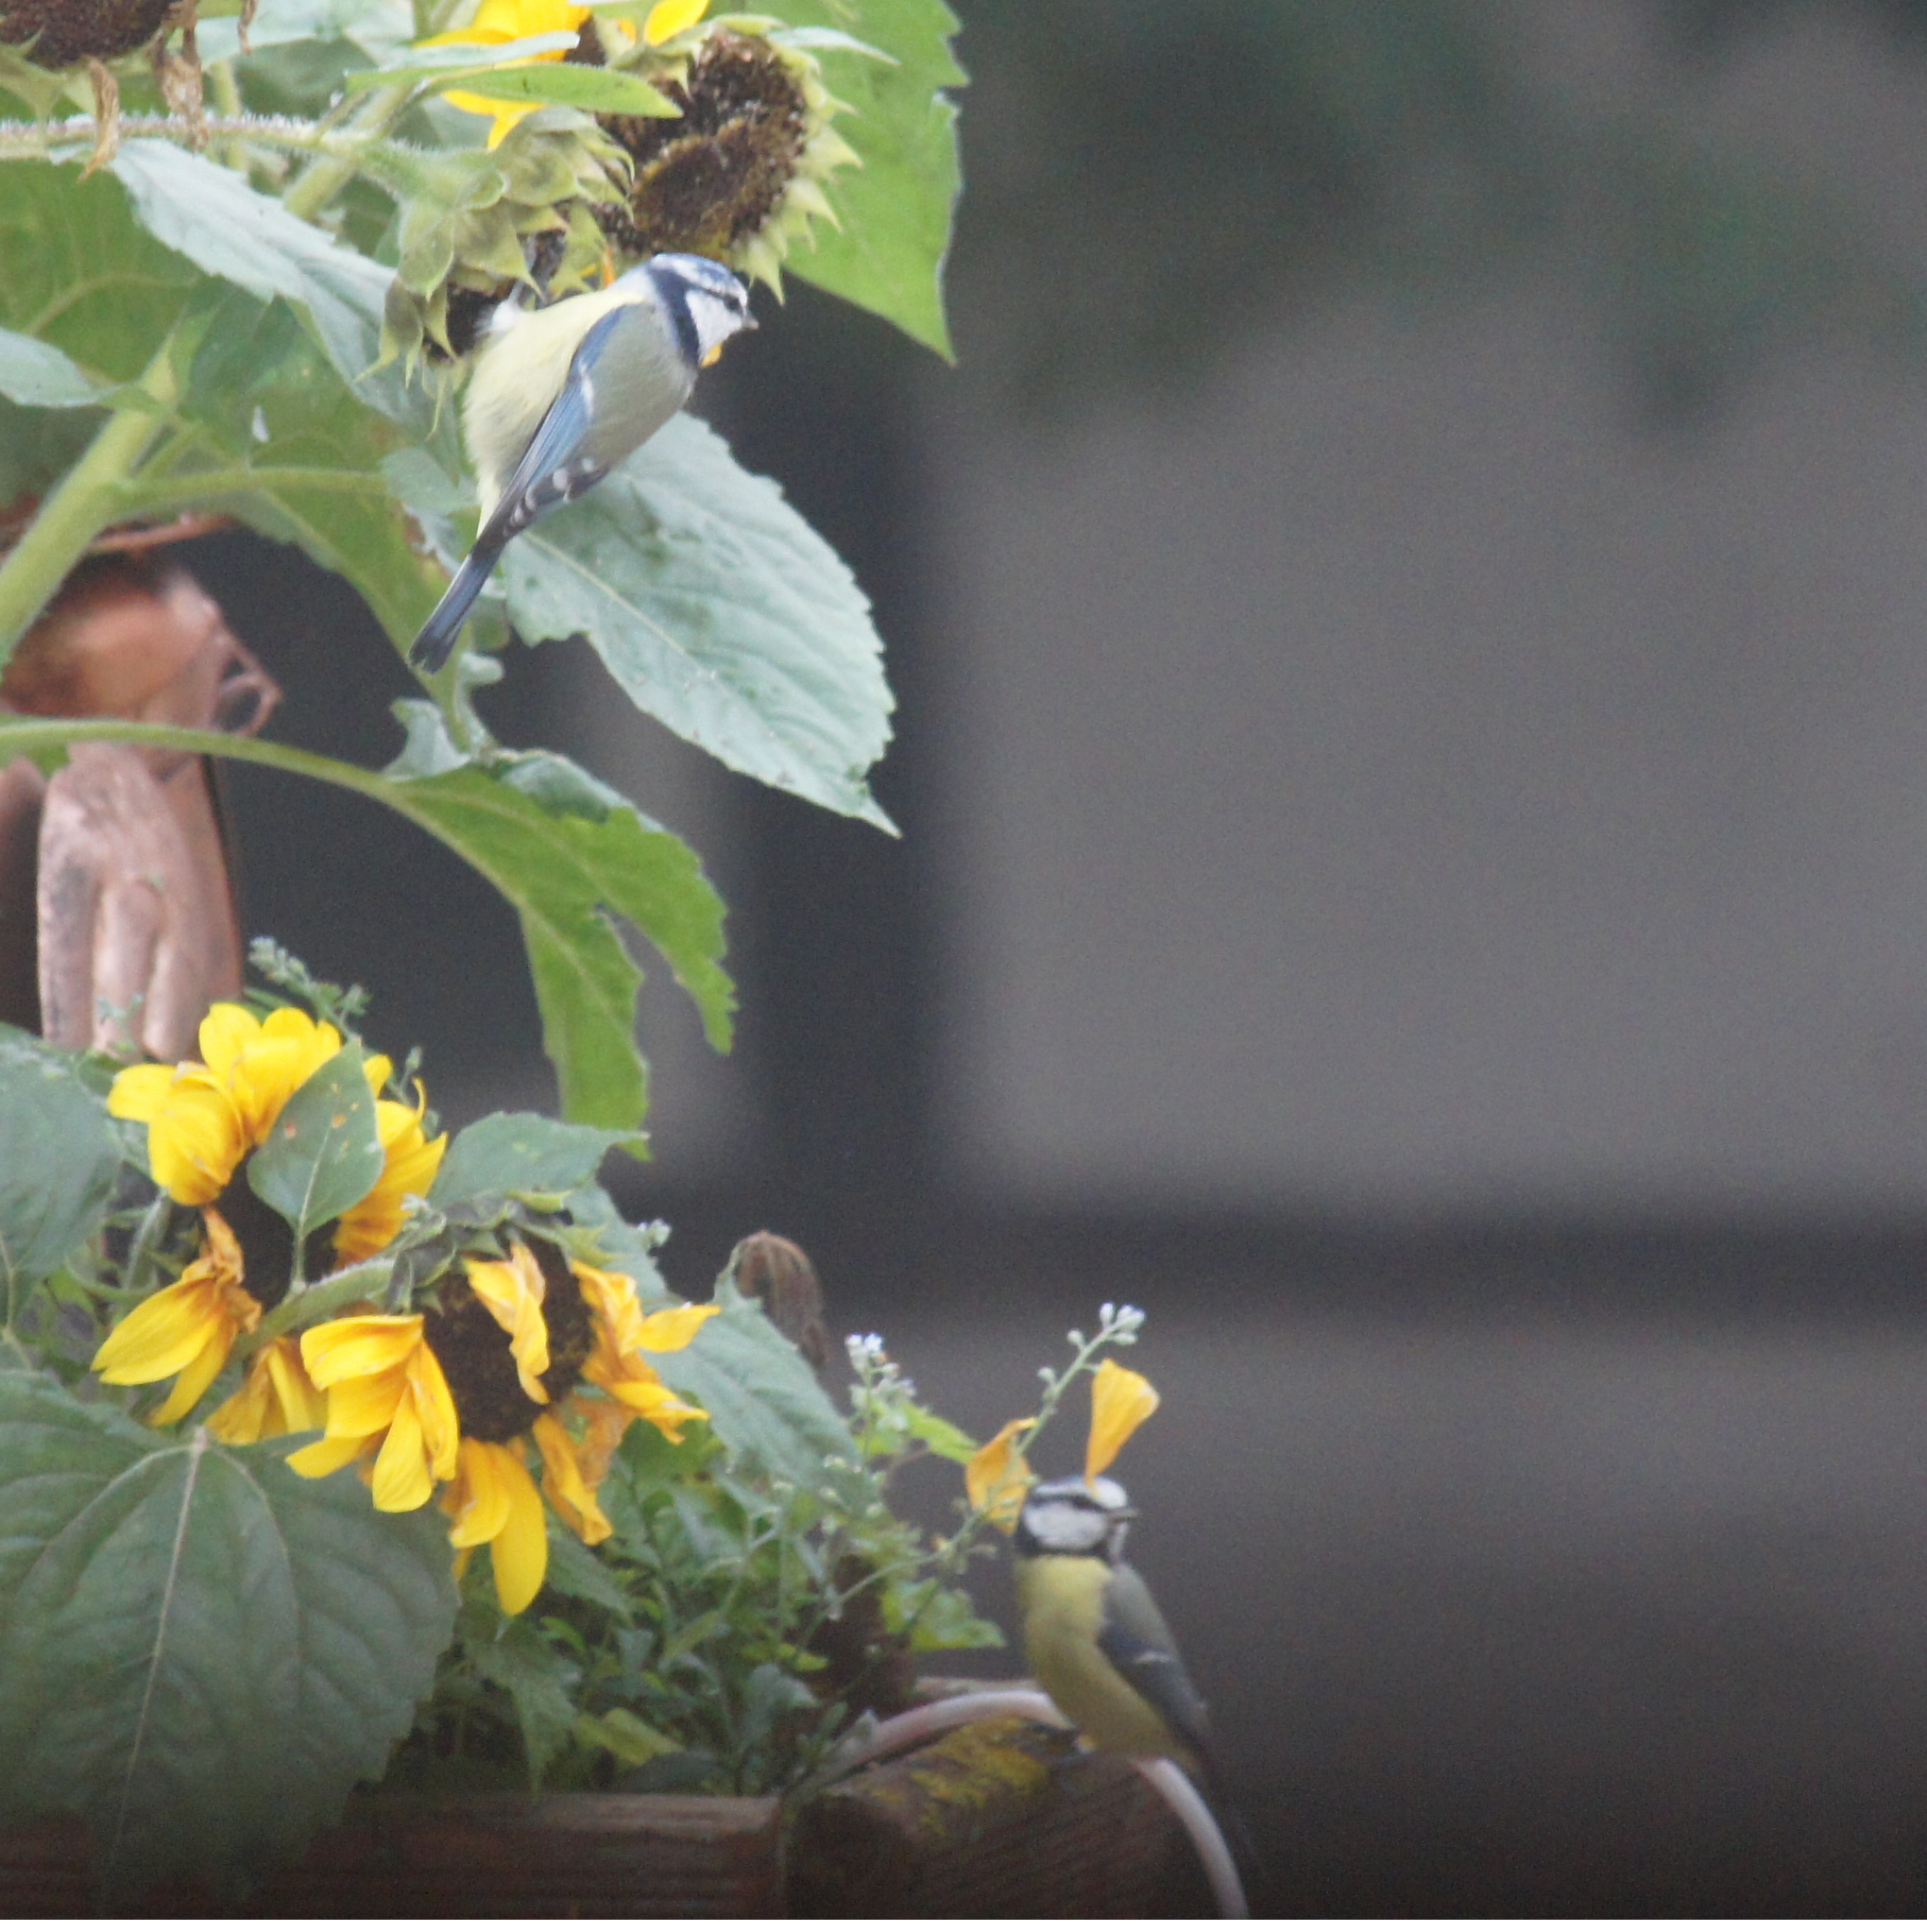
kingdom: Animalia
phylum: Chordata
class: Aves
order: Passeriformes
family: Paridae
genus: Cyanistes
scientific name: Cyanistes caeruleus
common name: Eurasian blue tit
